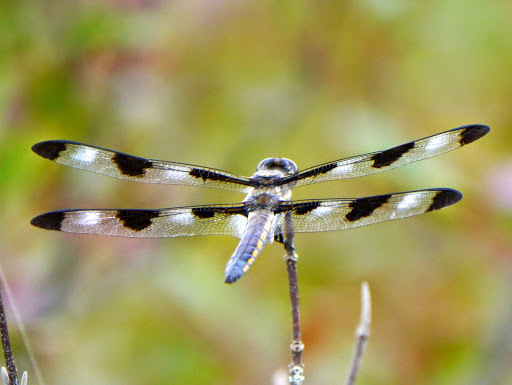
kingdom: Animalia
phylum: Arthropoda
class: Insecta
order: Odonata
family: Libellulidae
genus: Libellula
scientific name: Libellula pulchella
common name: Twelve-spotted skimmer
